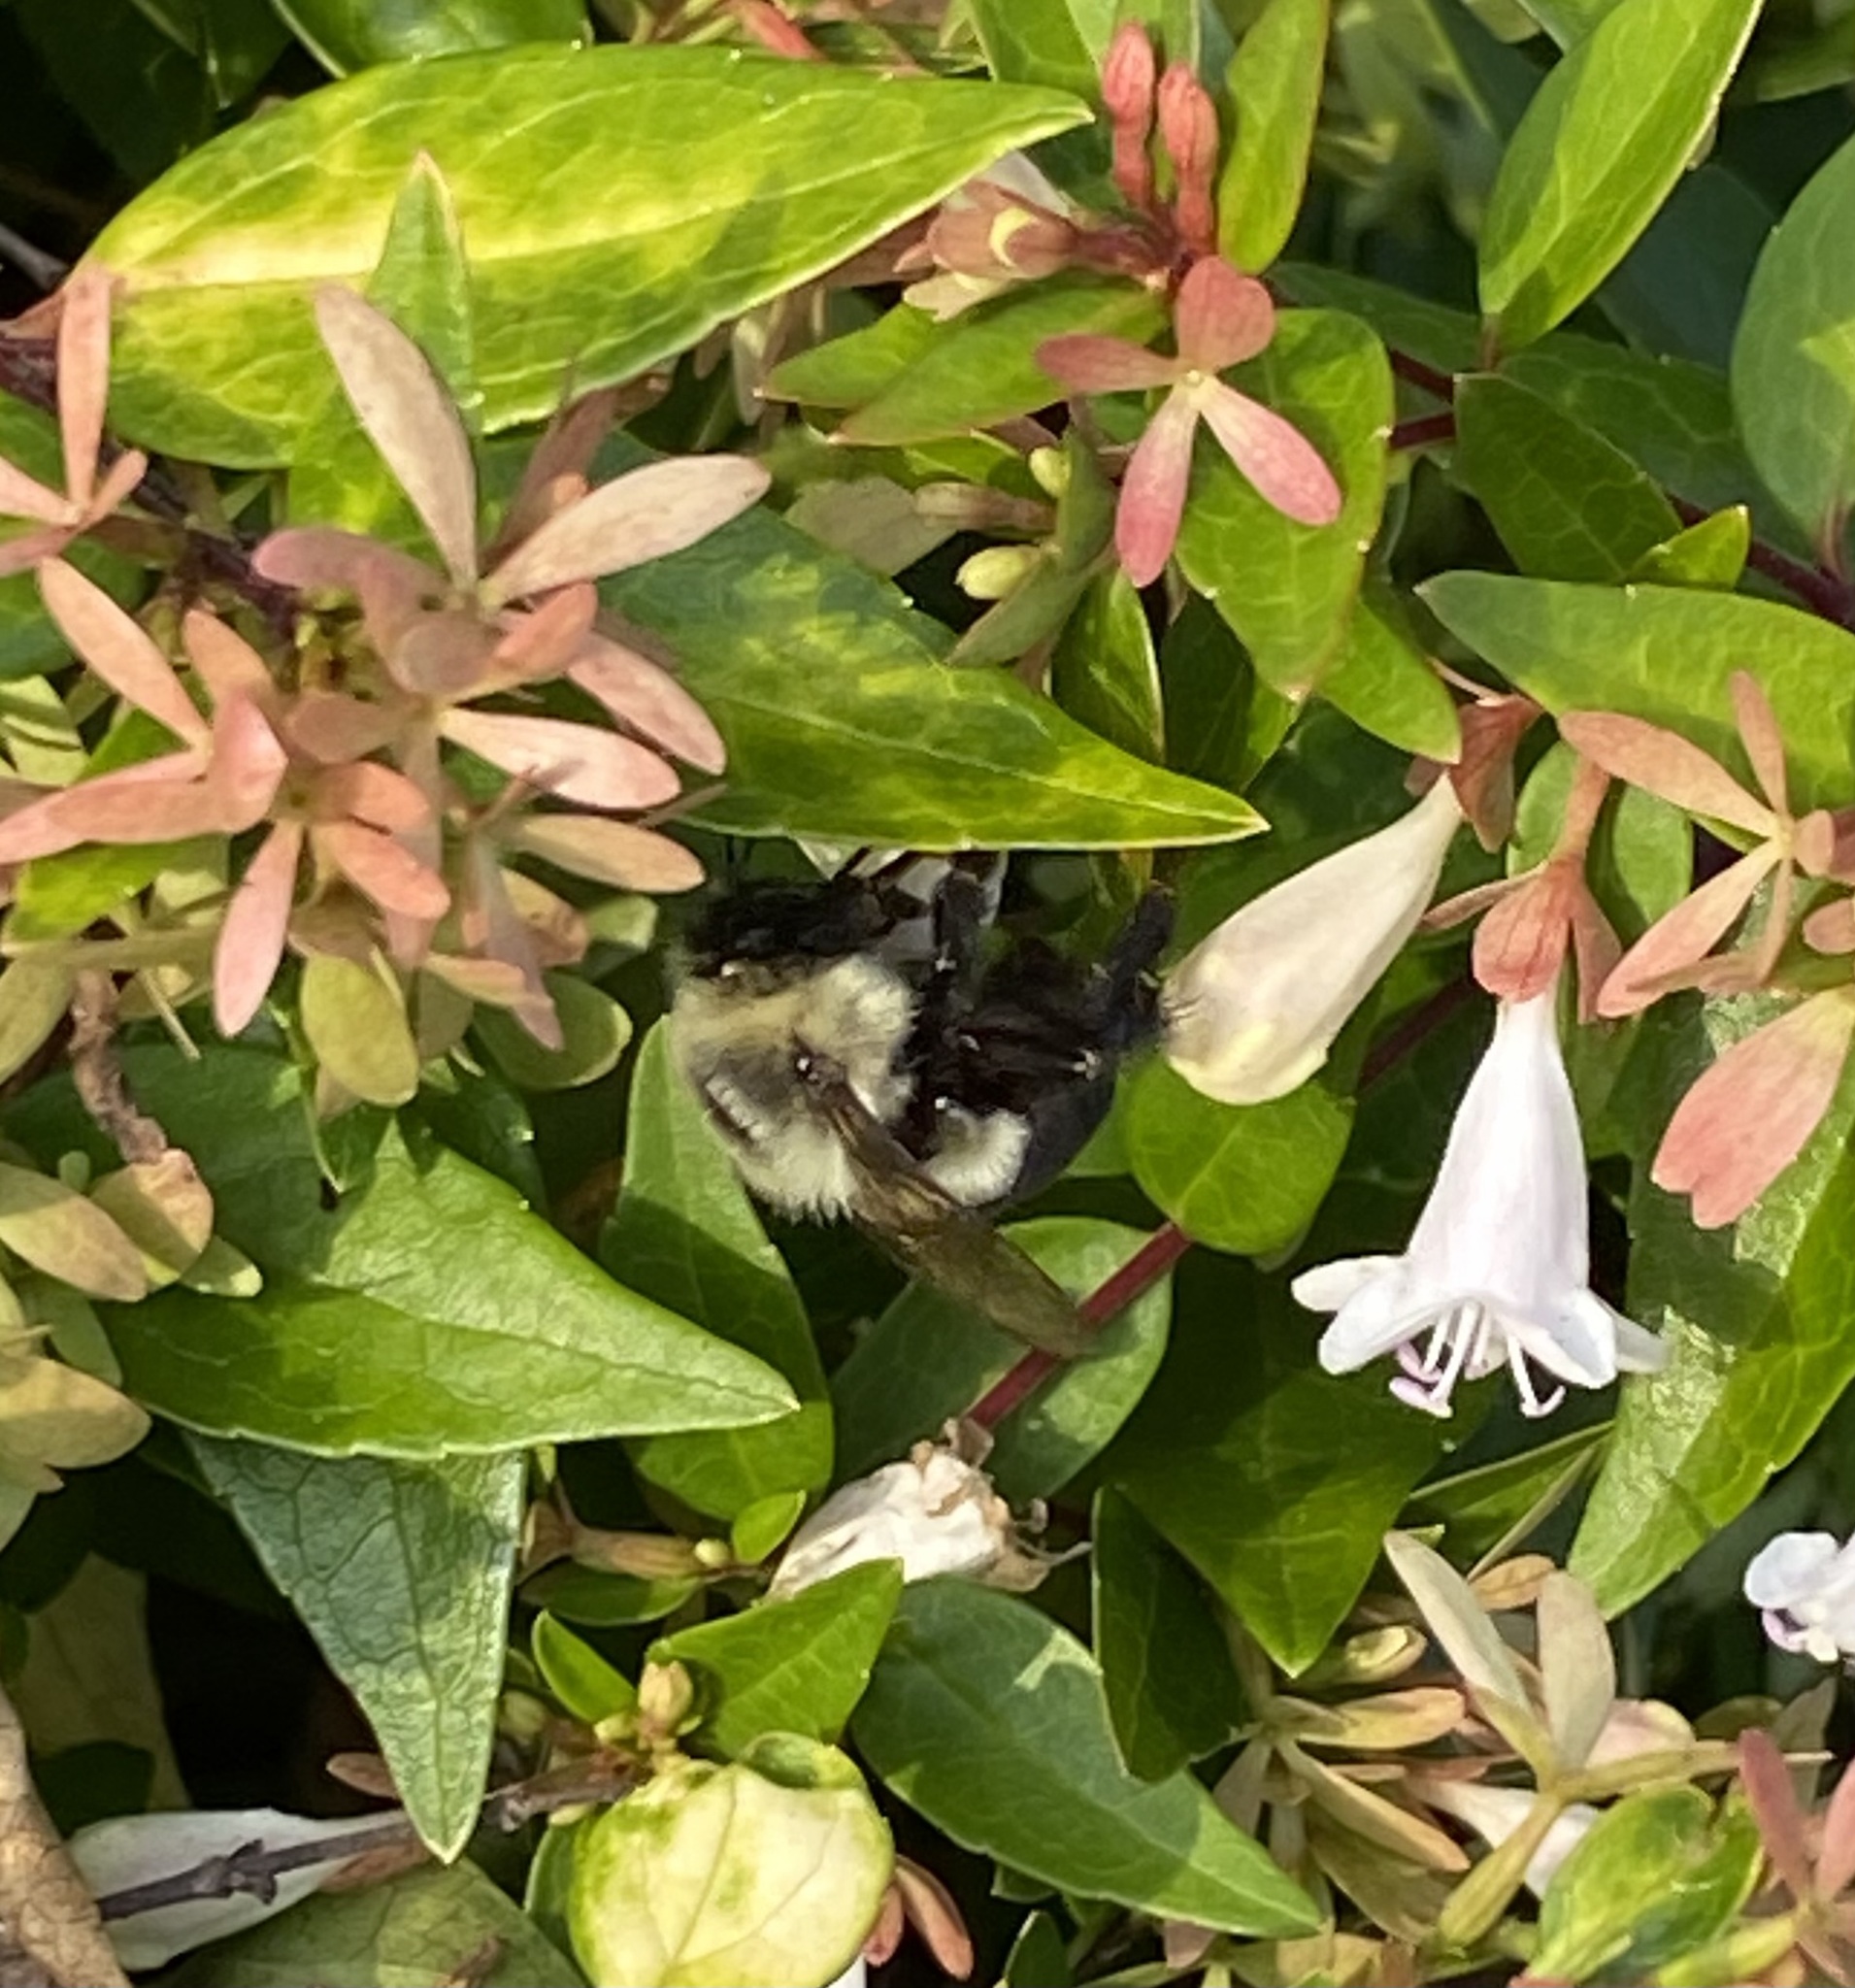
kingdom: Animalia
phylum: Arthropoda
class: Insecta
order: Hymenoptera
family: Apidae
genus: Bombus
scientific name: Bombus impatiens
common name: Common eastern bumble bee
